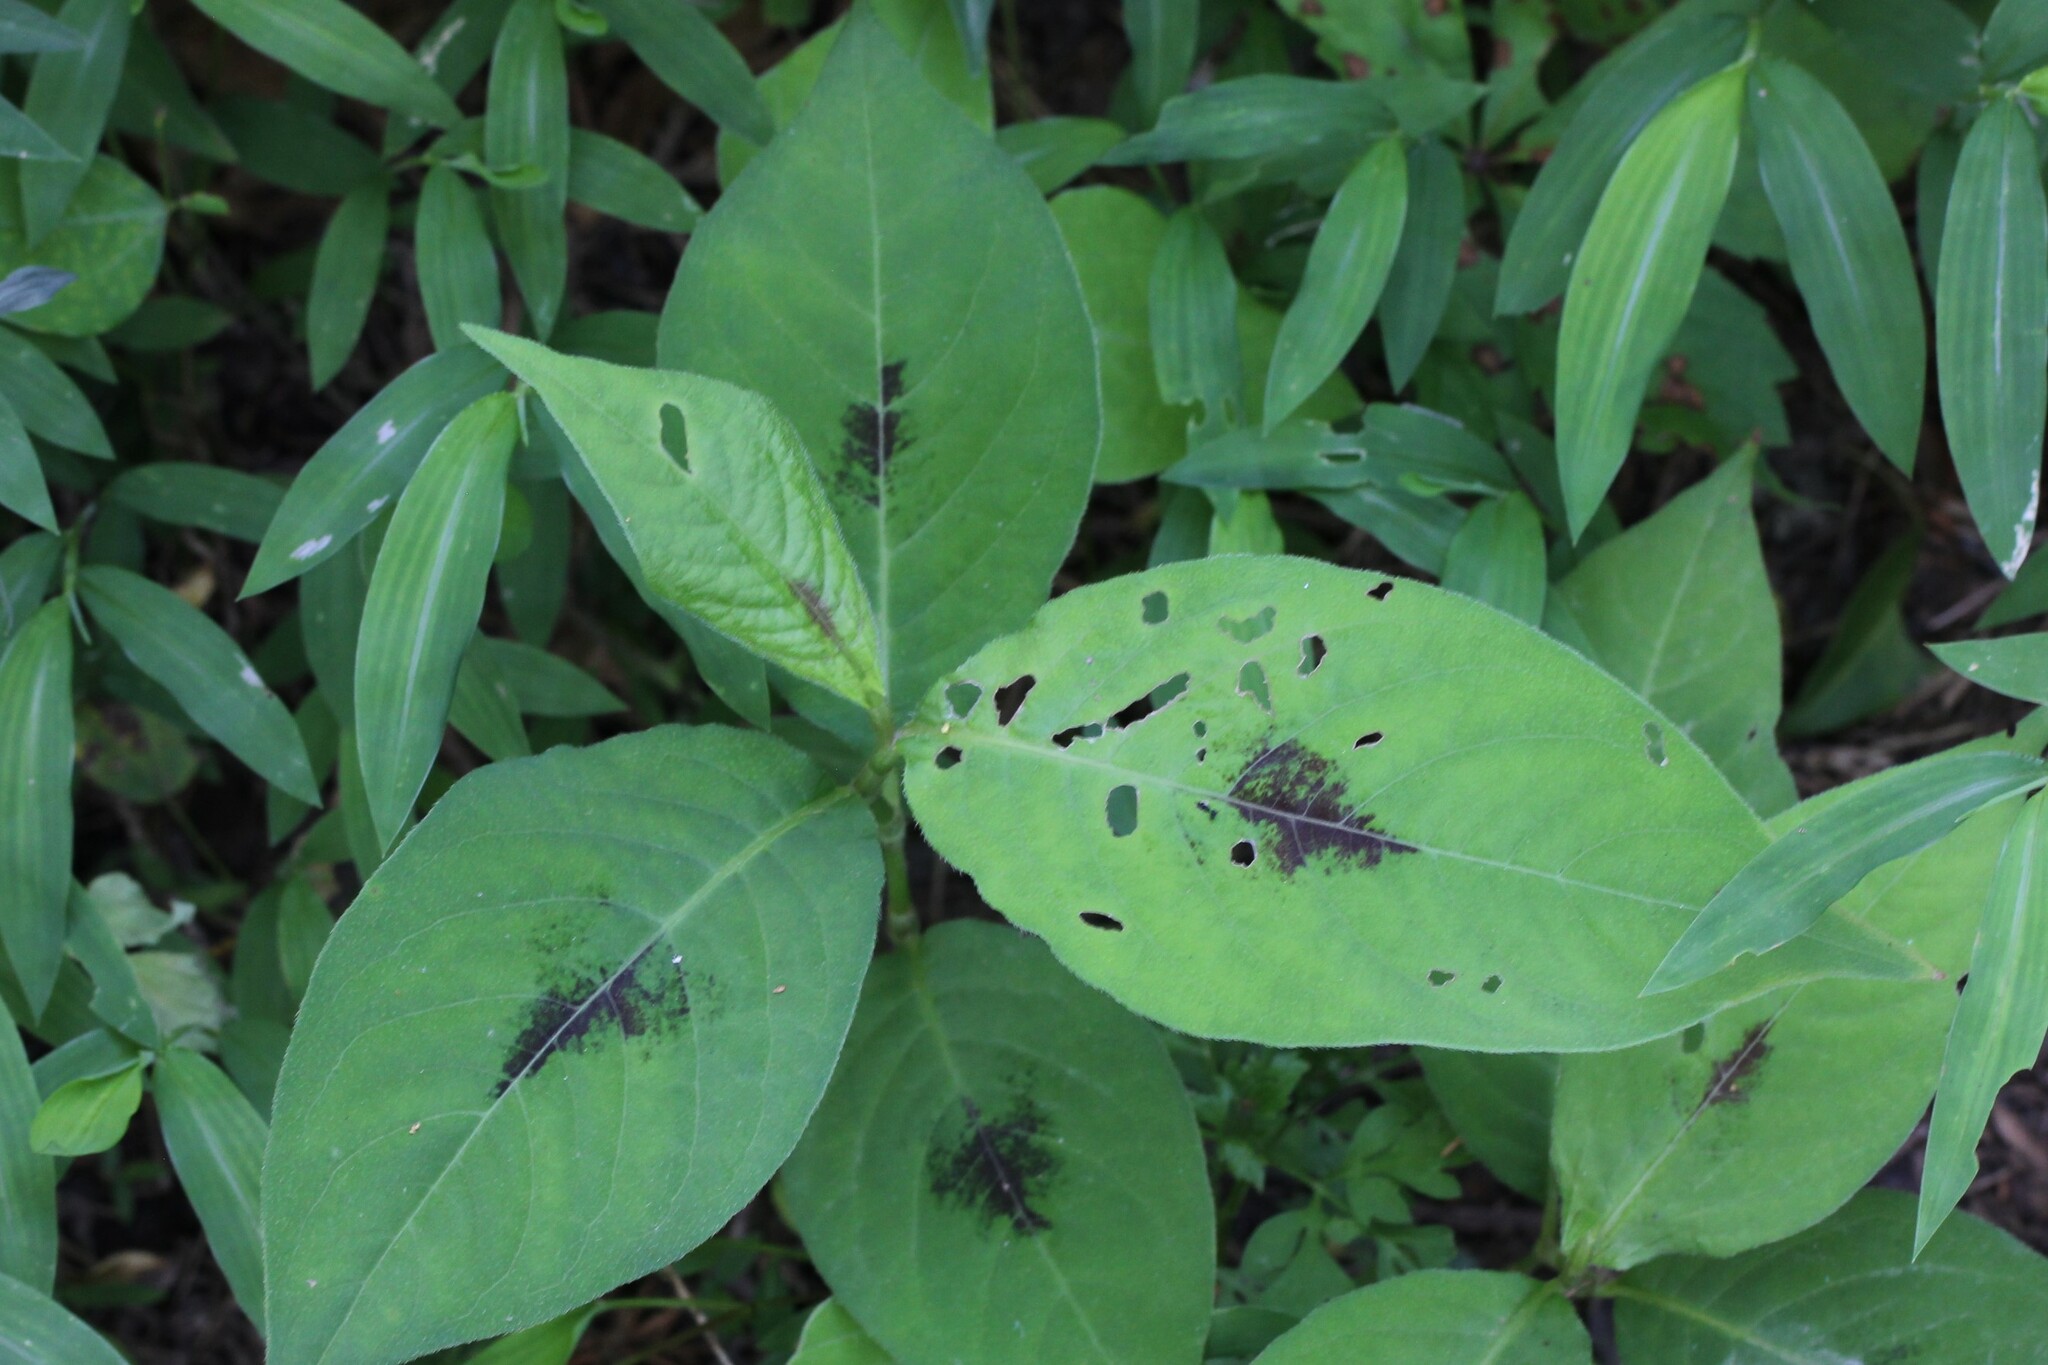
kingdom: Plantae
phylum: Tracheophyta
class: Magnoliopsida
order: Caryophyllales
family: Polygonaceae
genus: Persicaria
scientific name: Persicaria virginiana
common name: Jumpseed
